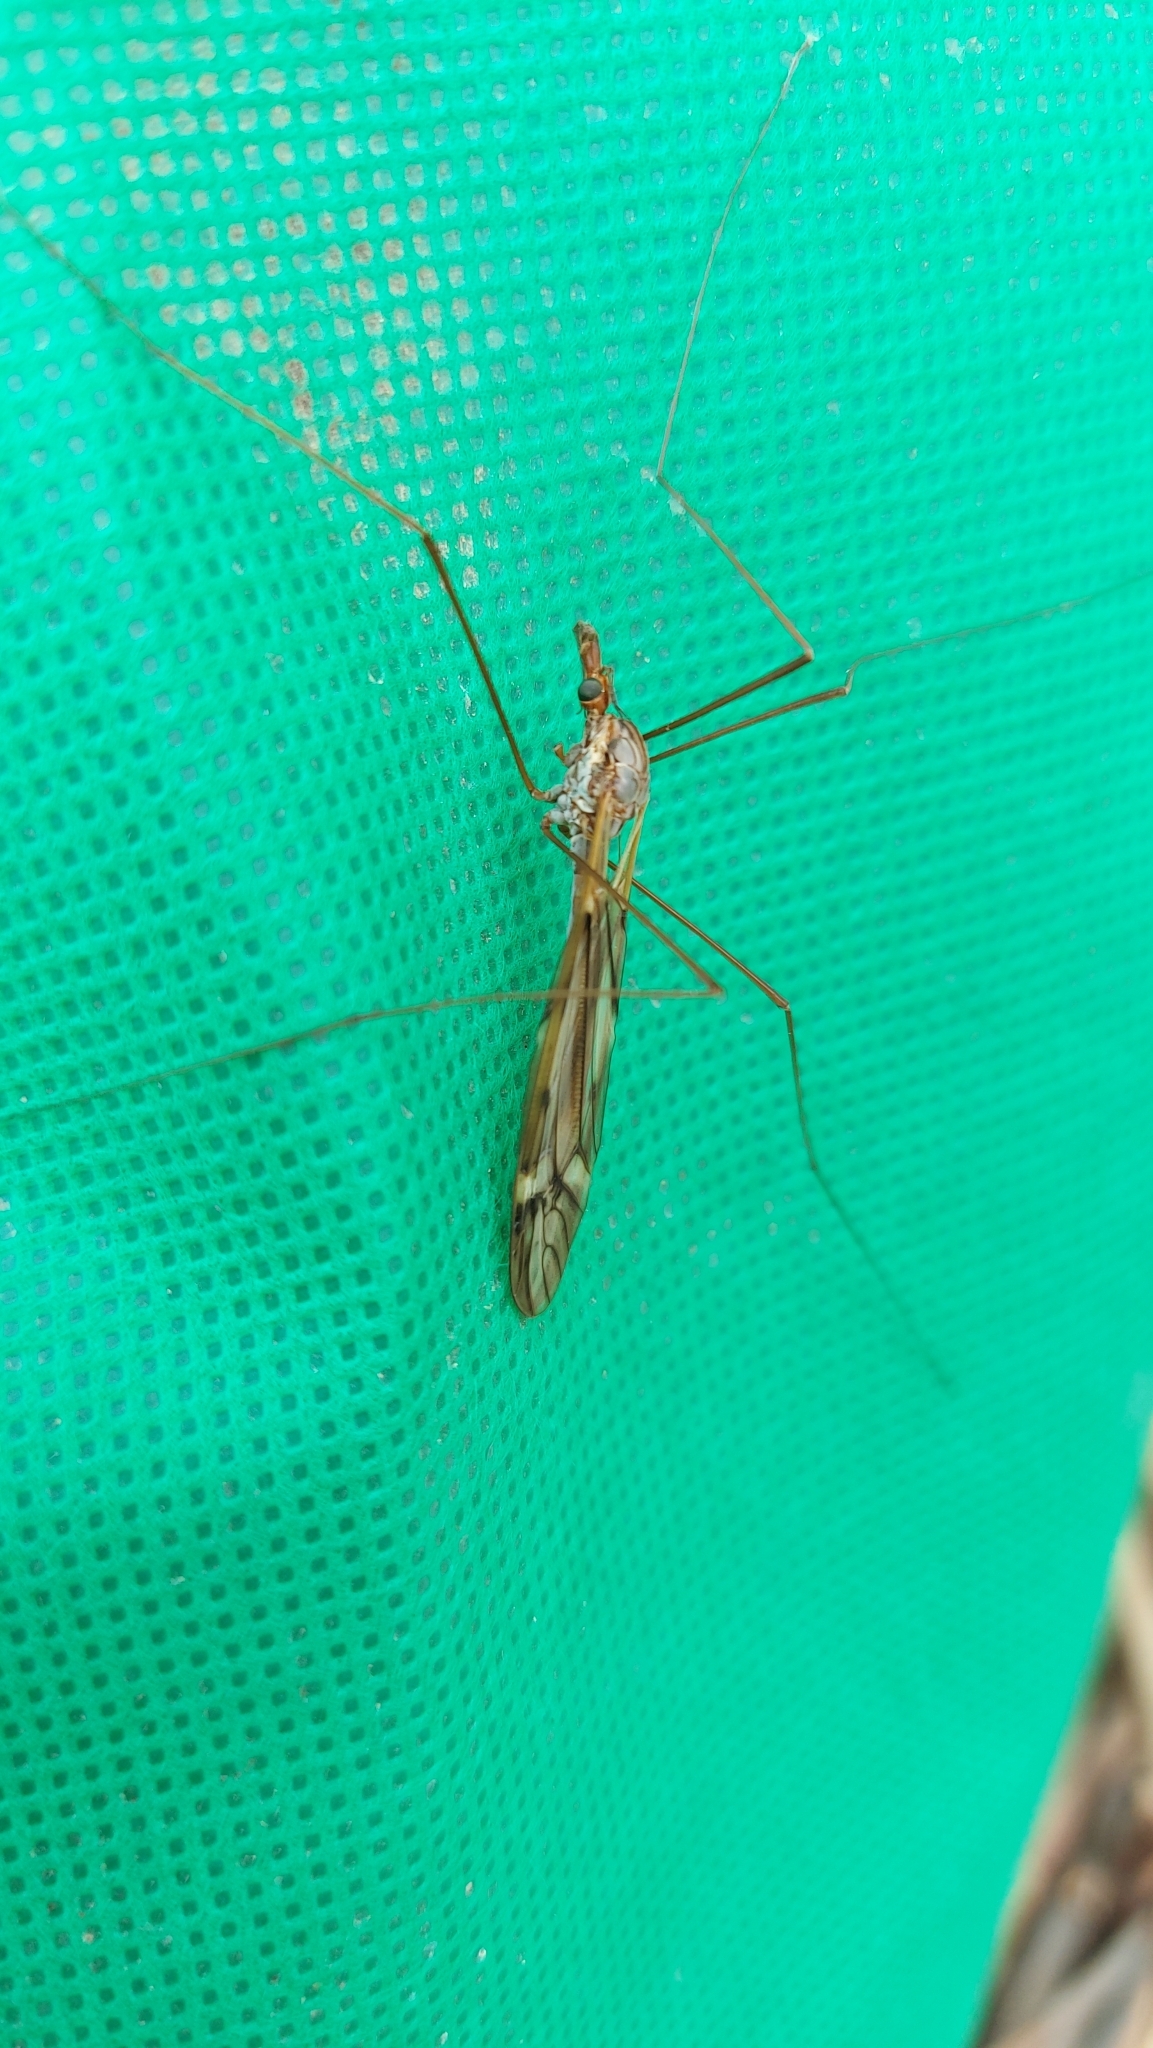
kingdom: Animalia
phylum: Arthropoda
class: Insecta
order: Diptera
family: Tipulidae
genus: Zelandotipula
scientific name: Zelandotipula novarae
